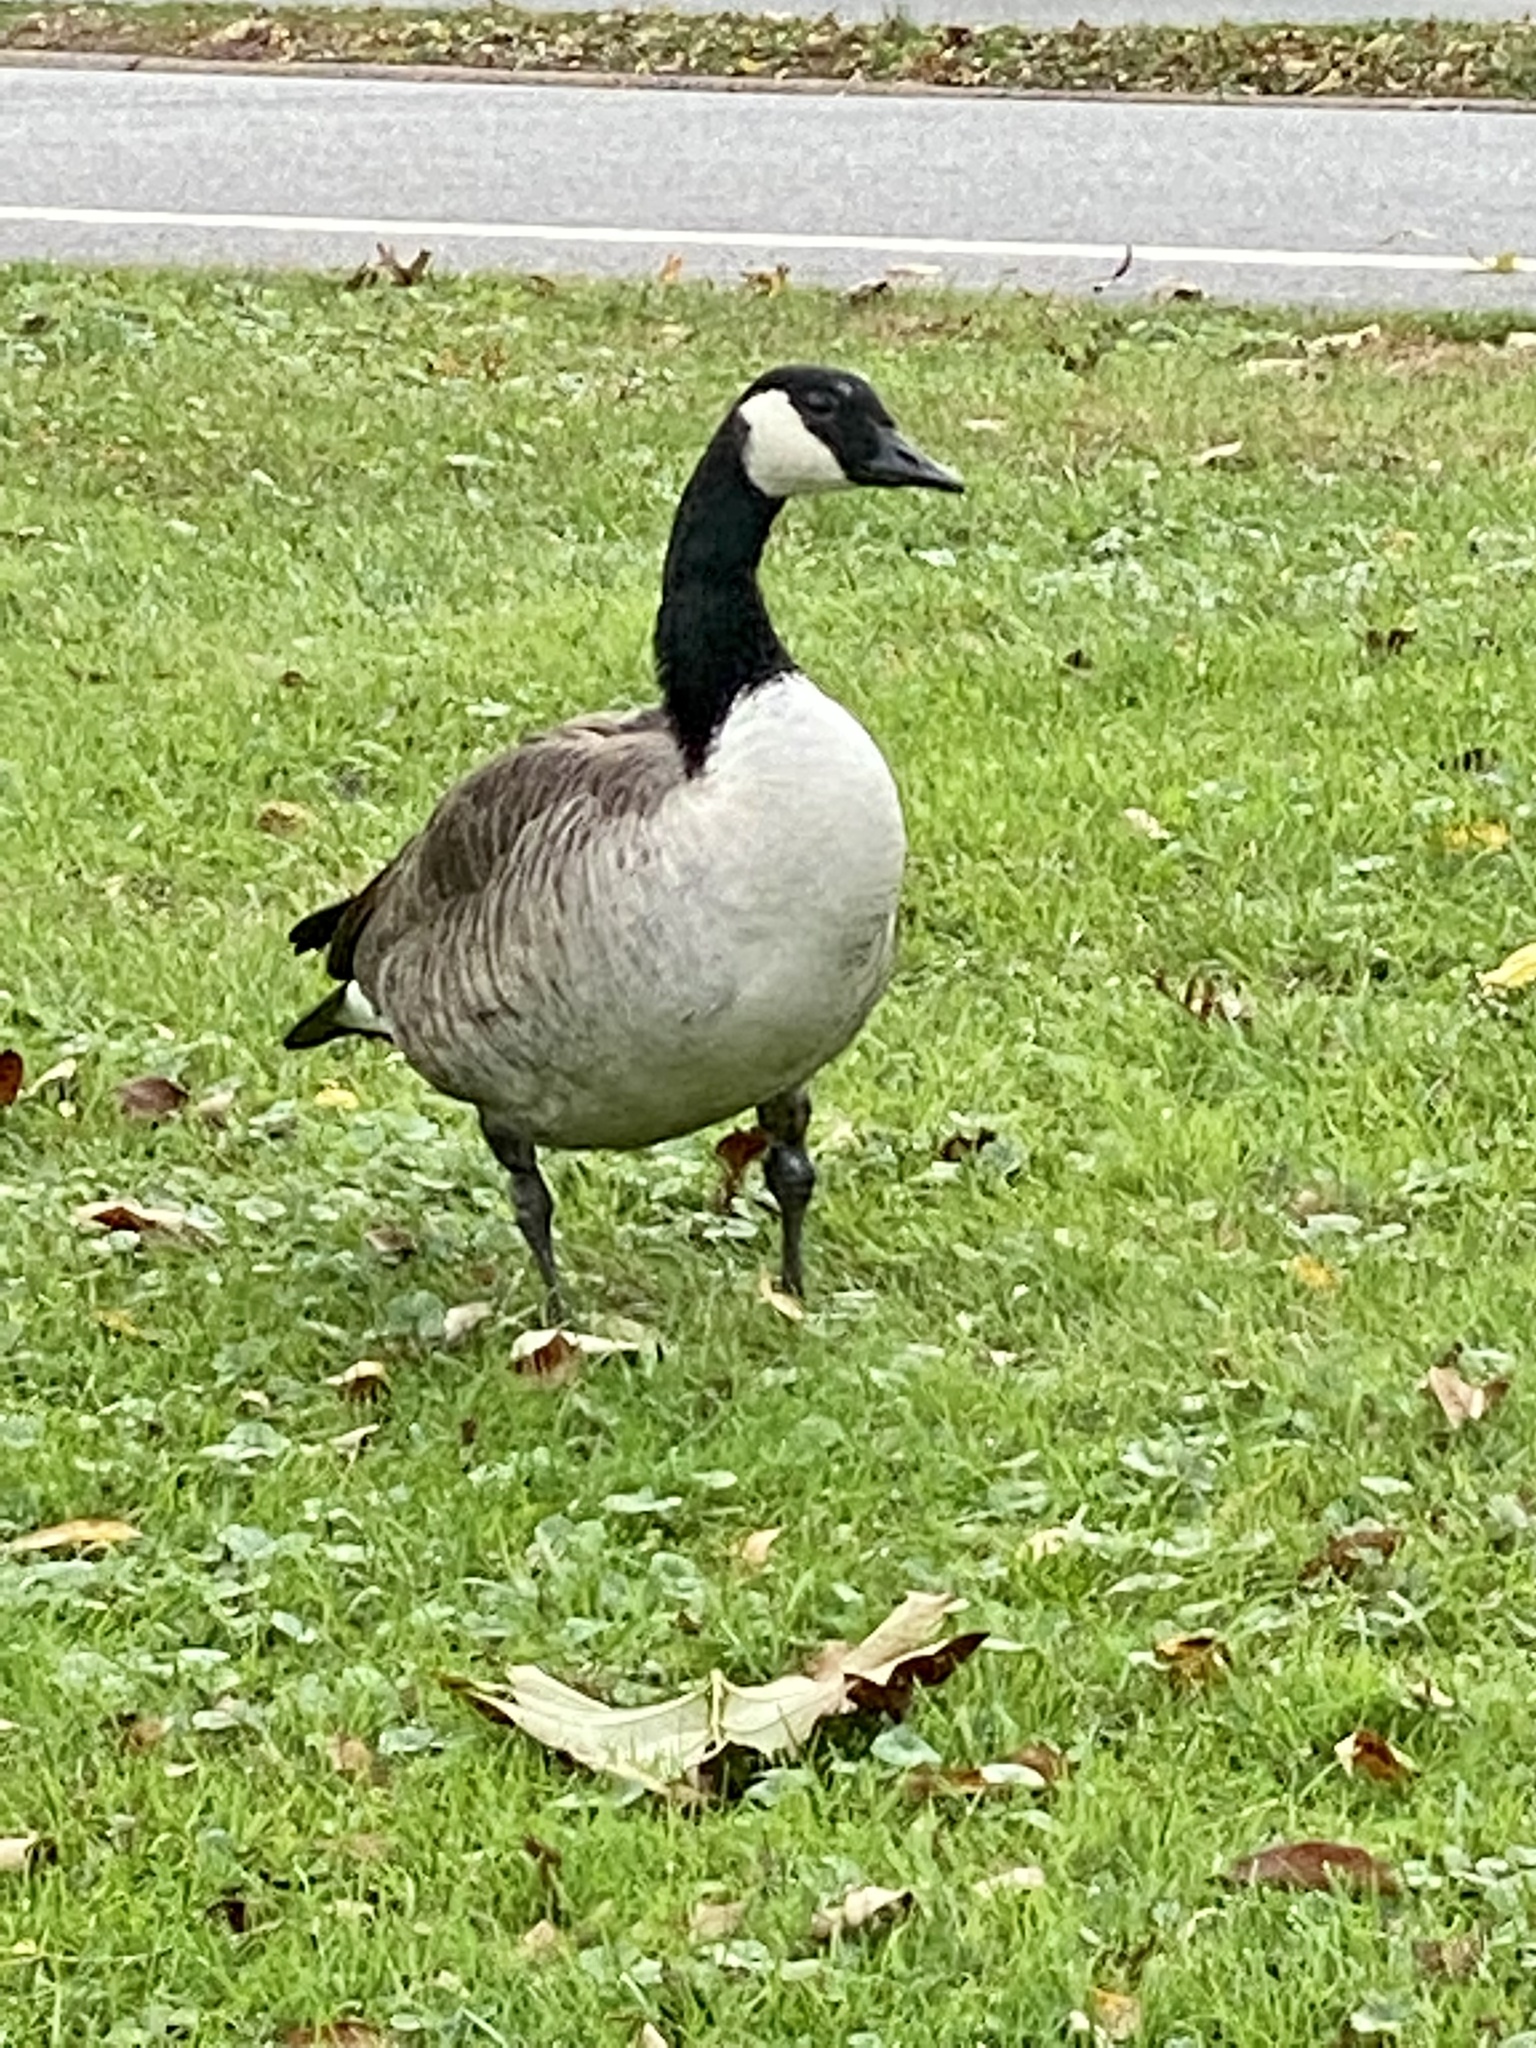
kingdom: Animalia
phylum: Chordata
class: Aves
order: Anseriformes
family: Anatidae
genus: Branta
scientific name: Branta canadensis
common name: Canada goose
